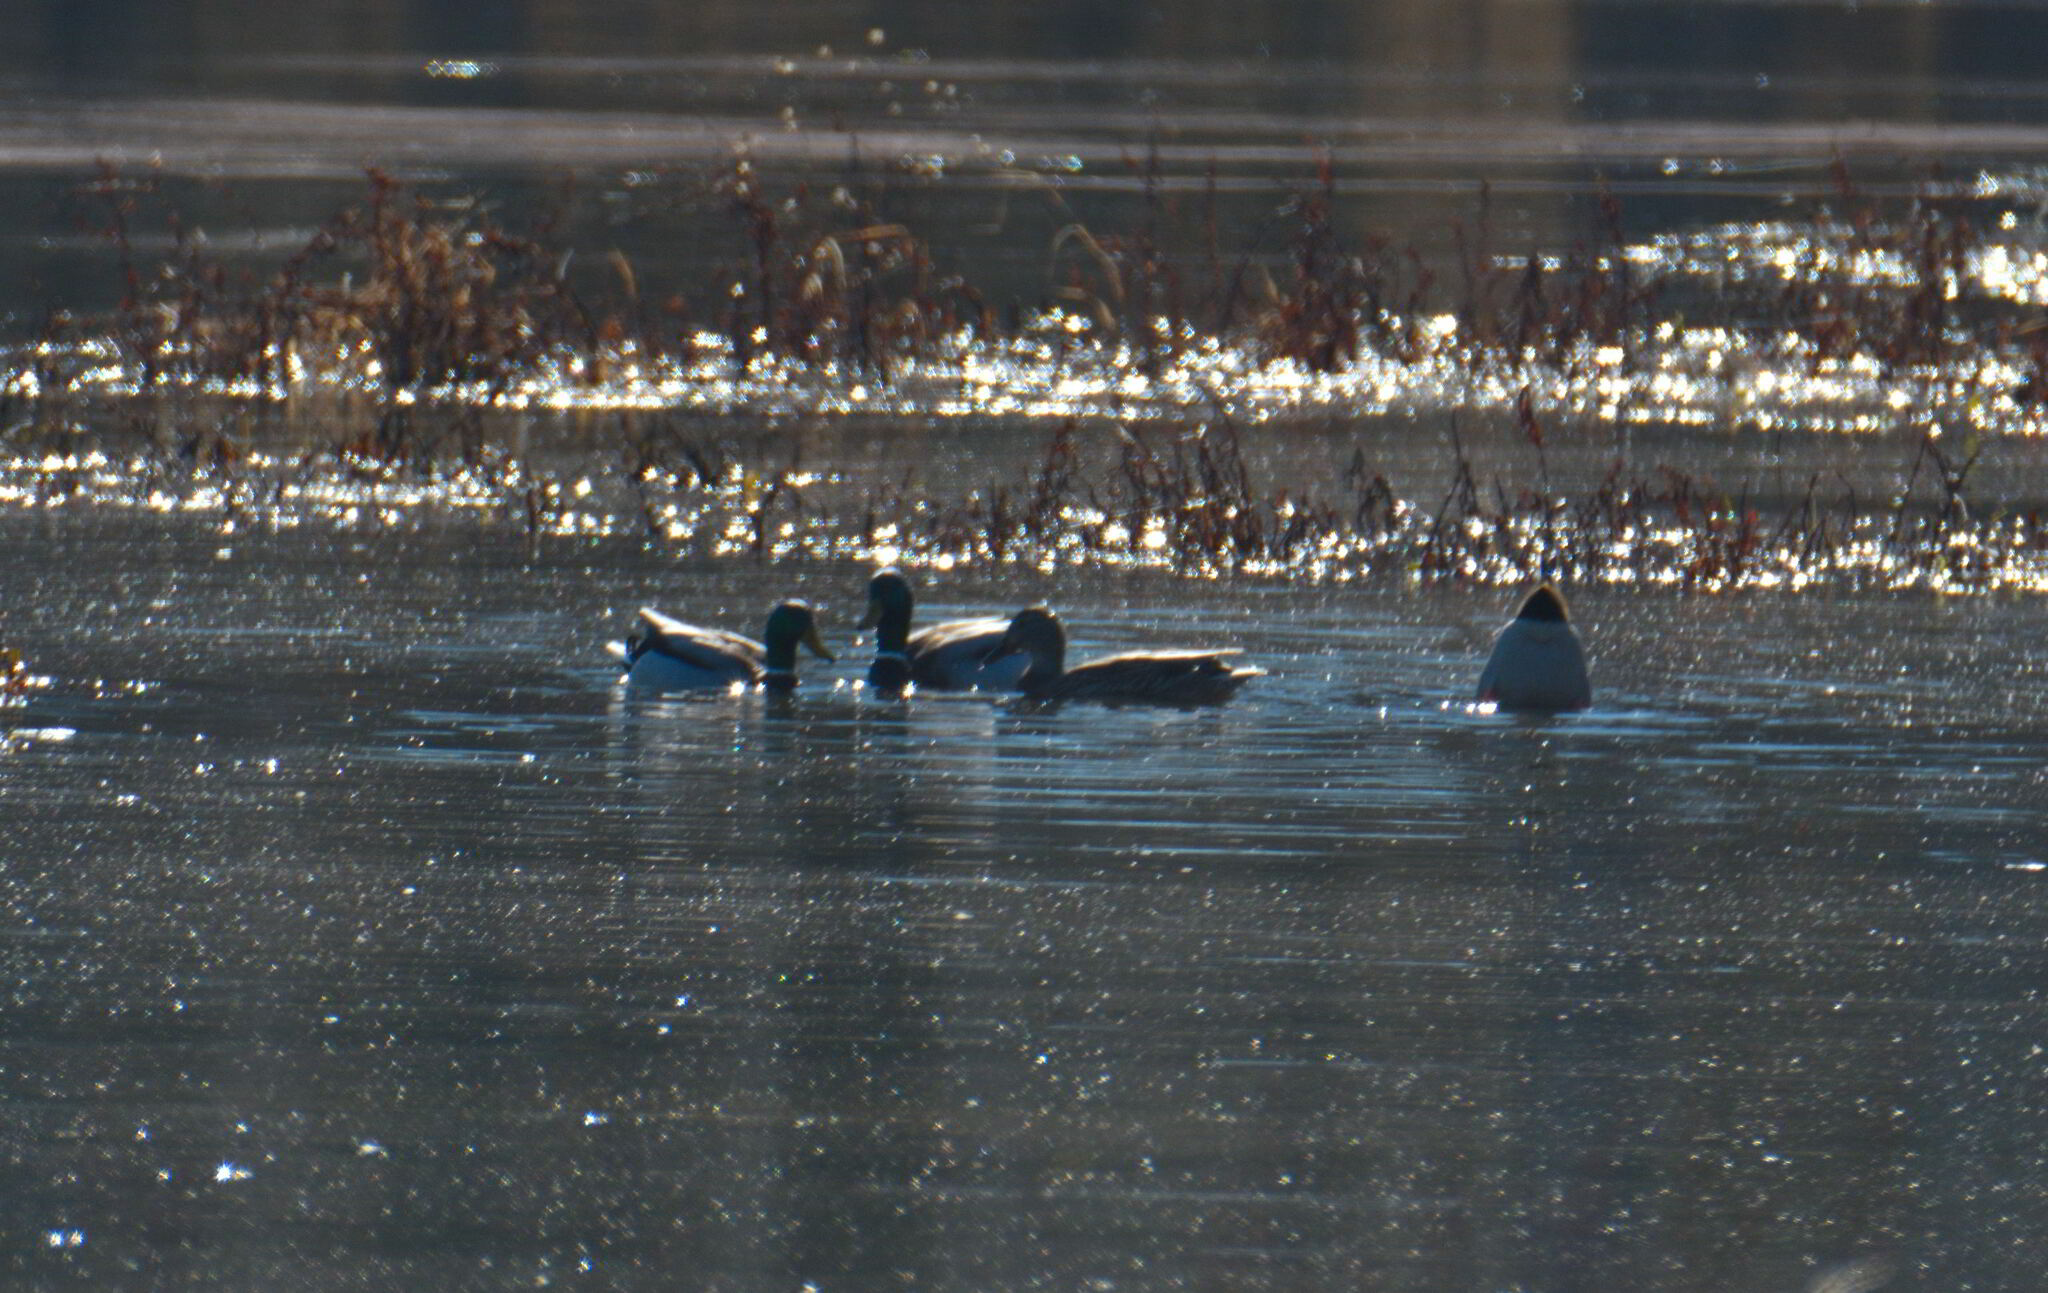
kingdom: Animalia
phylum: Chordata
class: Aves
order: Anseriformes
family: Anatidae
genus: Anas
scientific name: Anas platyrhynchos
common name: Mallard
